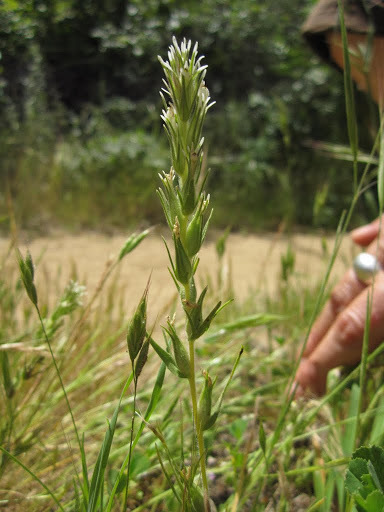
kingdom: Plantae
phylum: Tracheophyta
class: Magnoliopsida
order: Lamiales
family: Orobanchaceae
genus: Castilleja
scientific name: Castilleja attenuata
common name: Valley tassels
